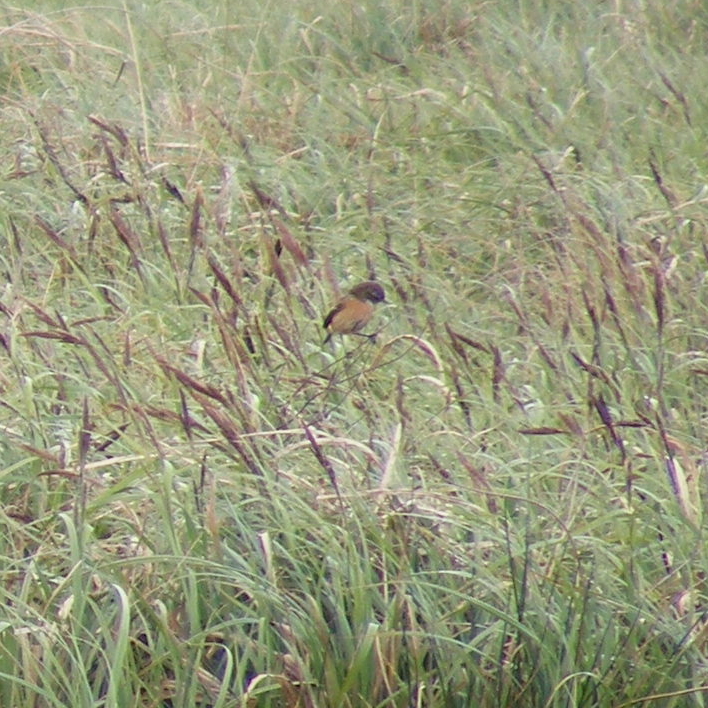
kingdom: Animalia
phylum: Chordata
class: Aves
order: Passeriformes
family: Muscicapidae
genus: Saxicola
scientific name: Saxicola rubicola
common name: European stonechat
